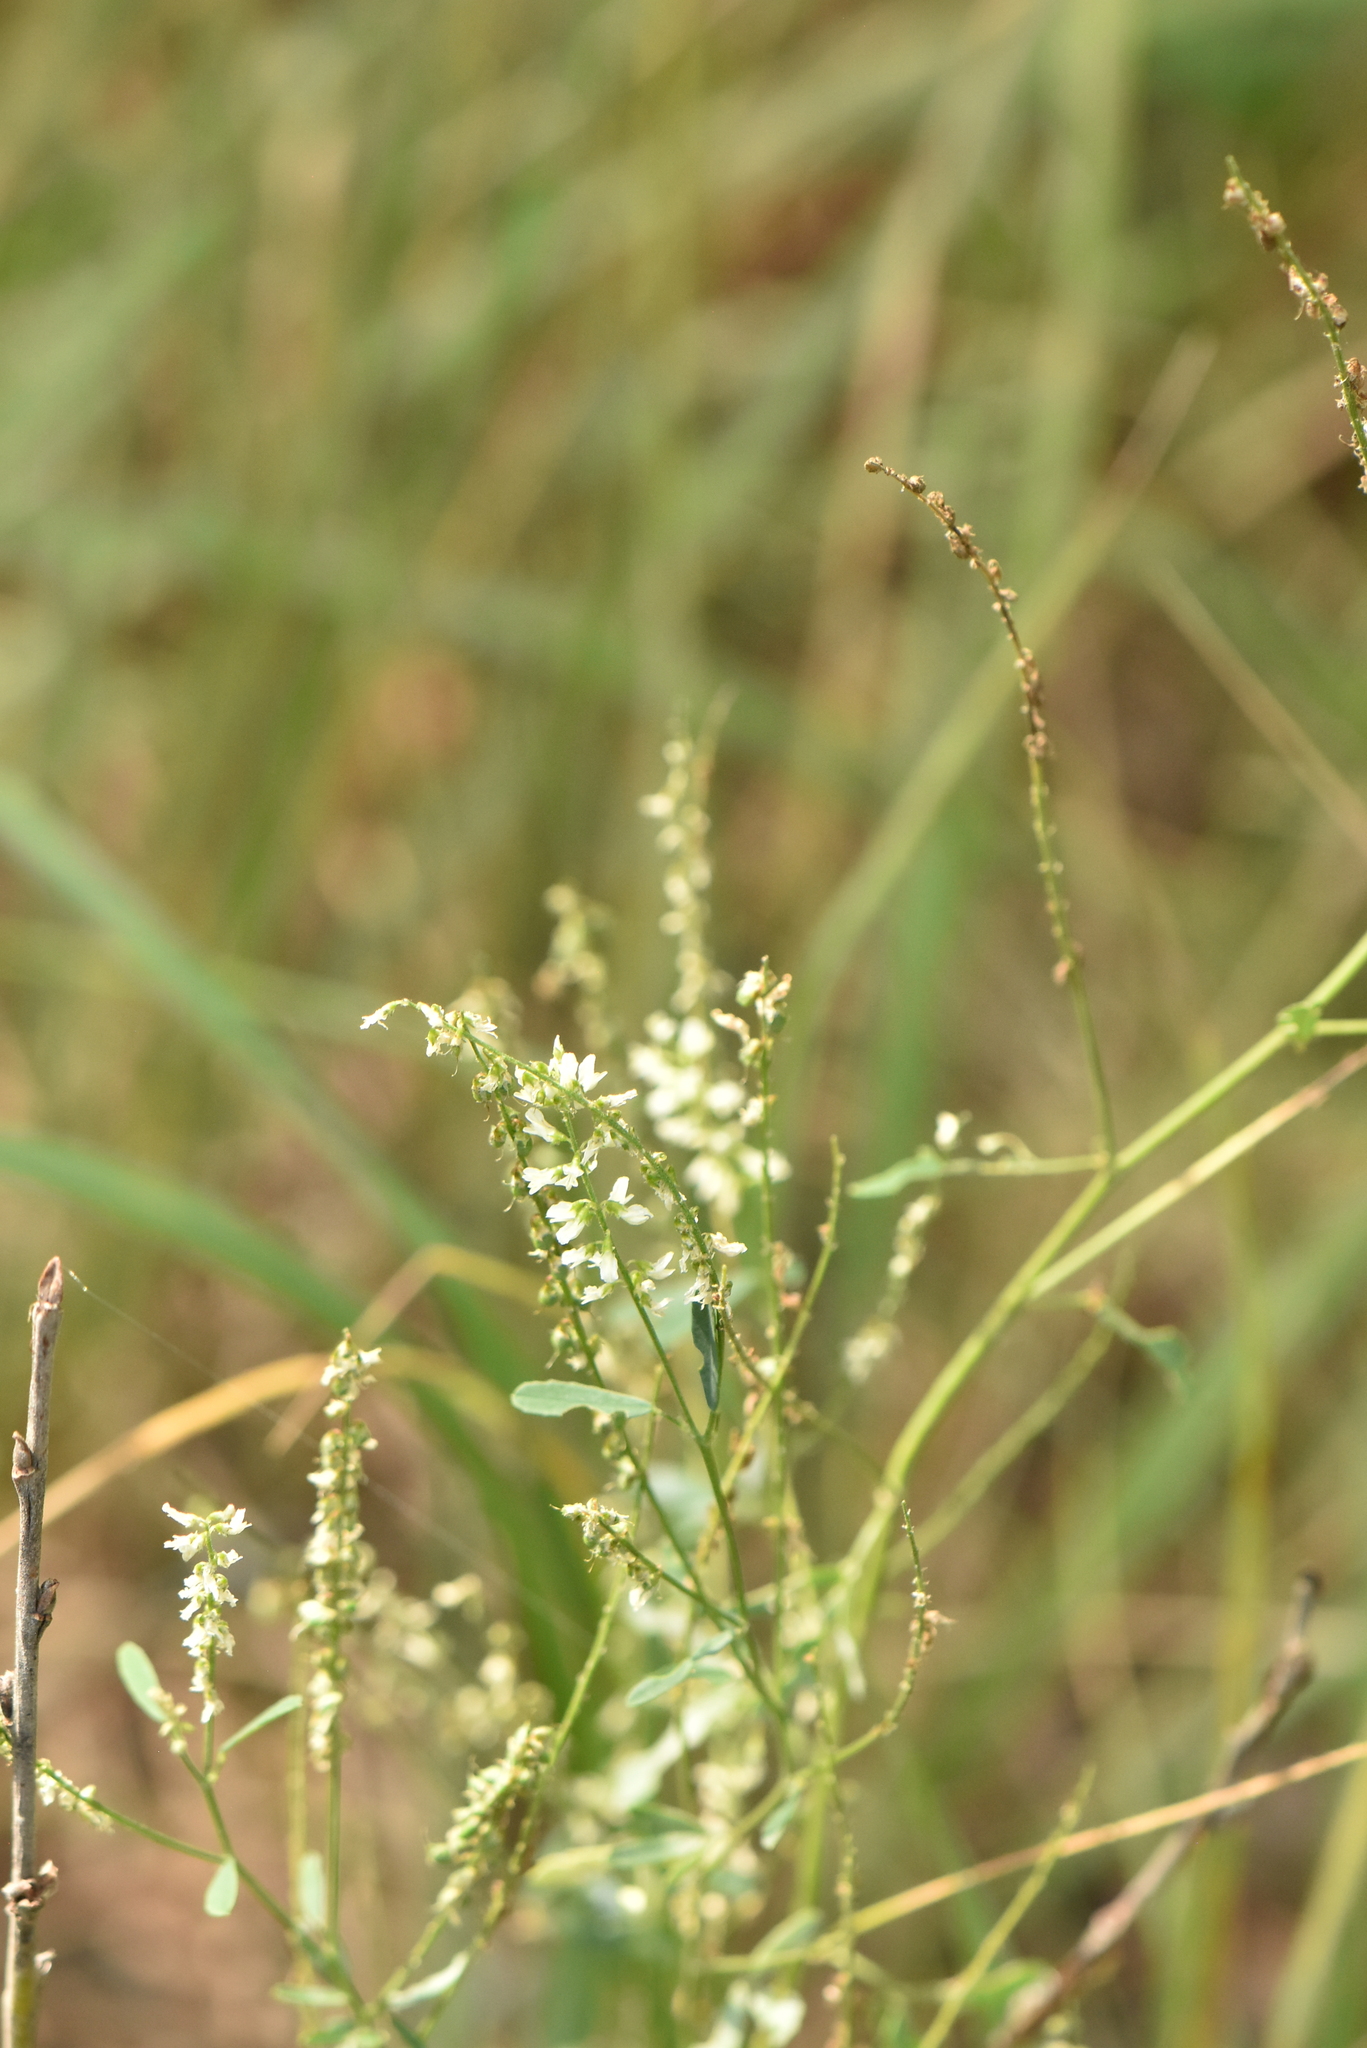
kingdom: Plantae
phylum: Tracheophyta
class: Magnoliopsida
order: Fabales
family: Fabaceae
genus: Melilotus
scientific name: Melilotus albus
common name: White melilot
